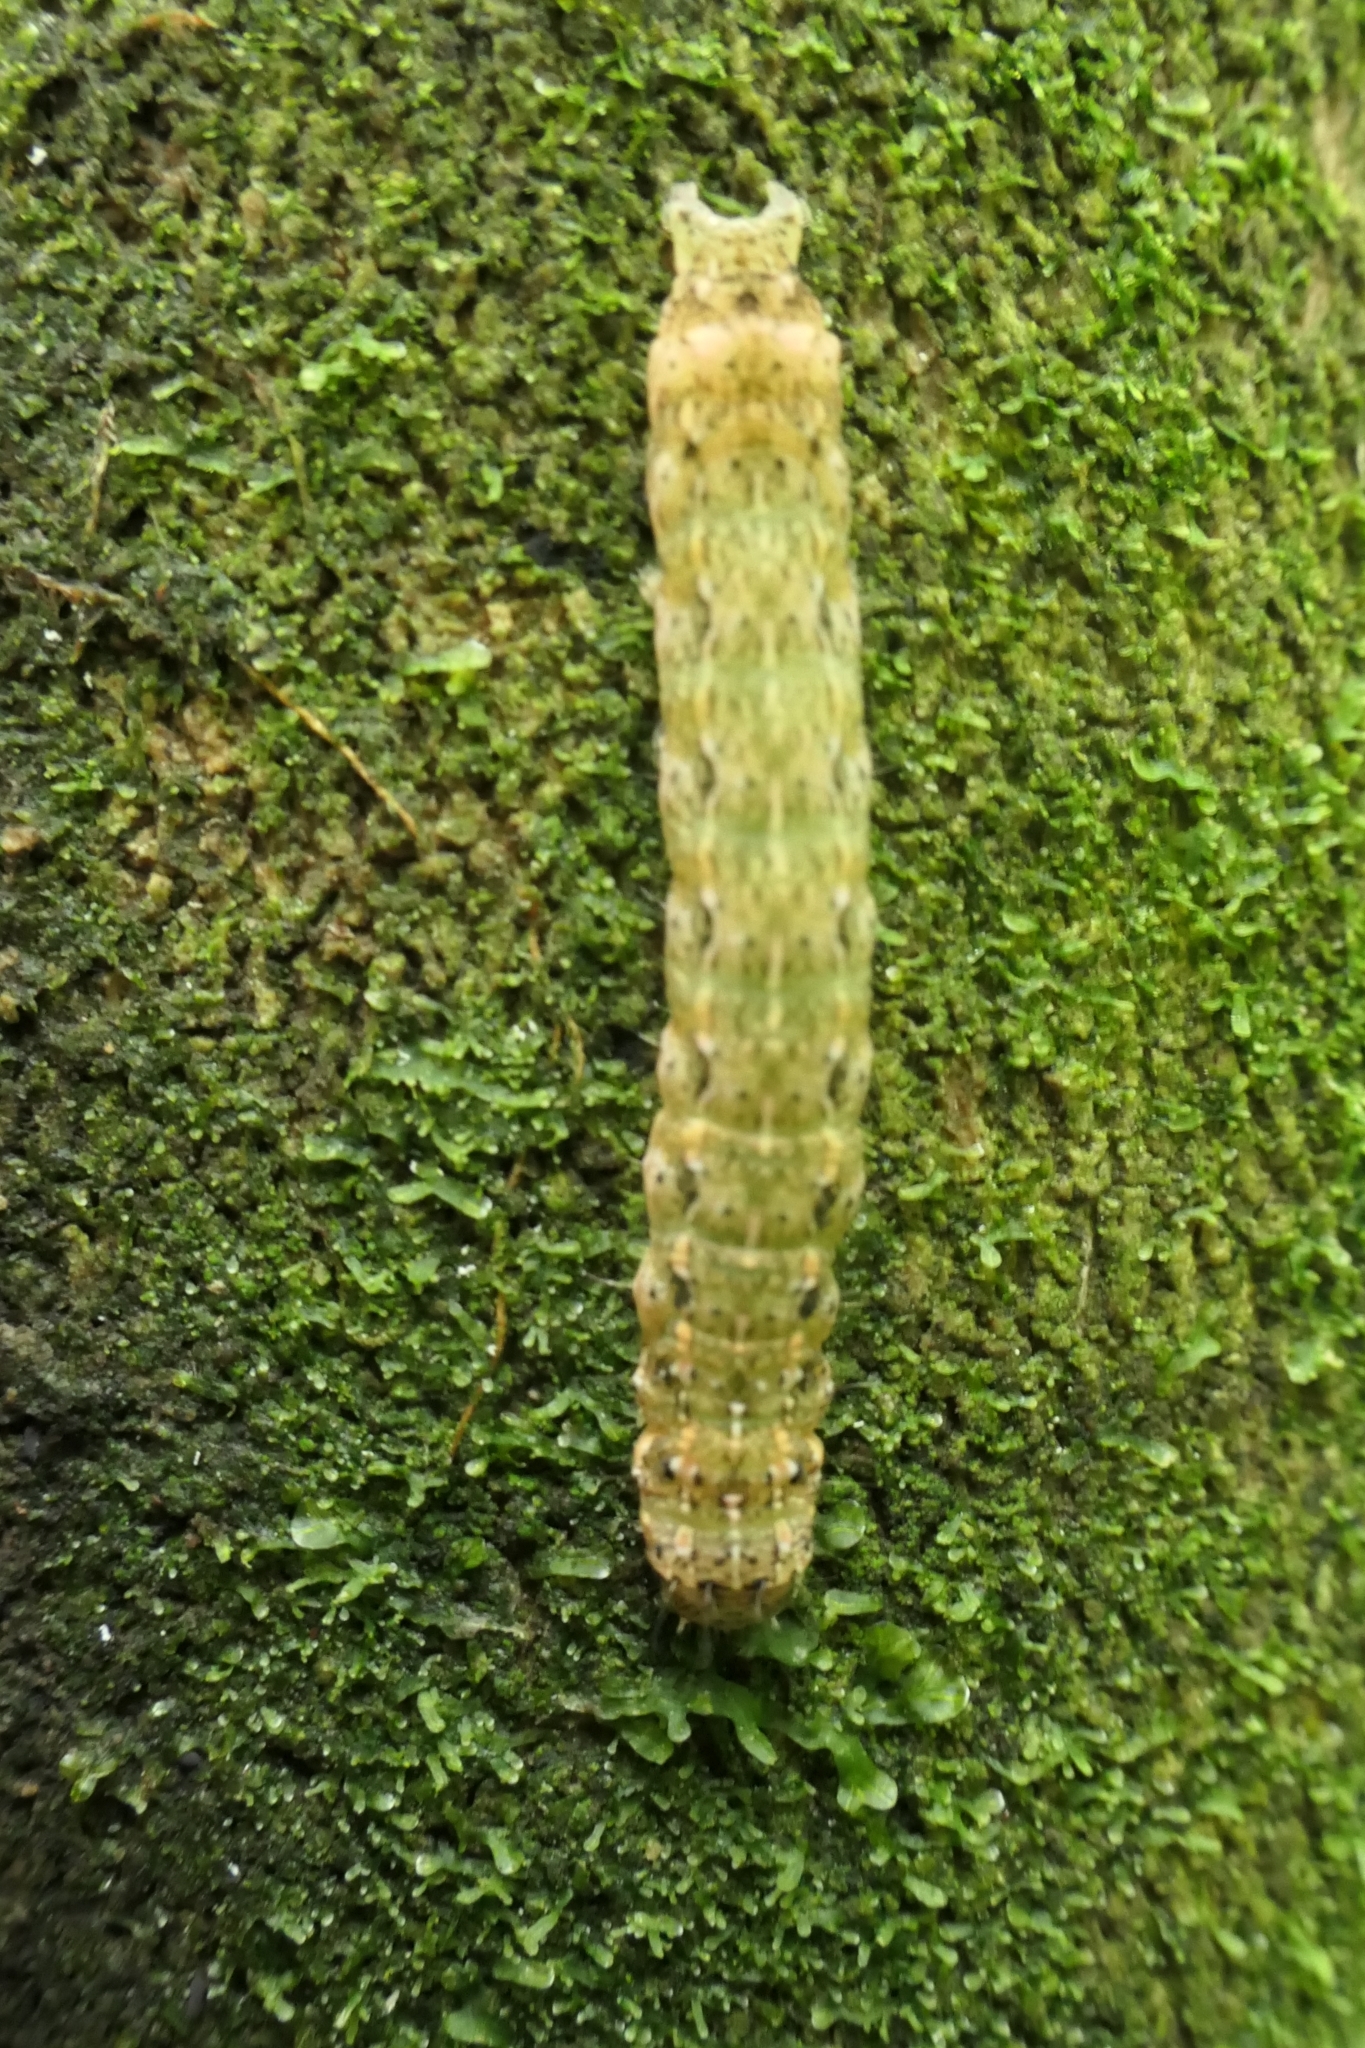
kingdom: Animalia
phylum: Arthropoda
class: Insecta
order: Lepidoptera
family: Noctuidae
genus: Feredayia
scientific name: Feredayia grammosa
